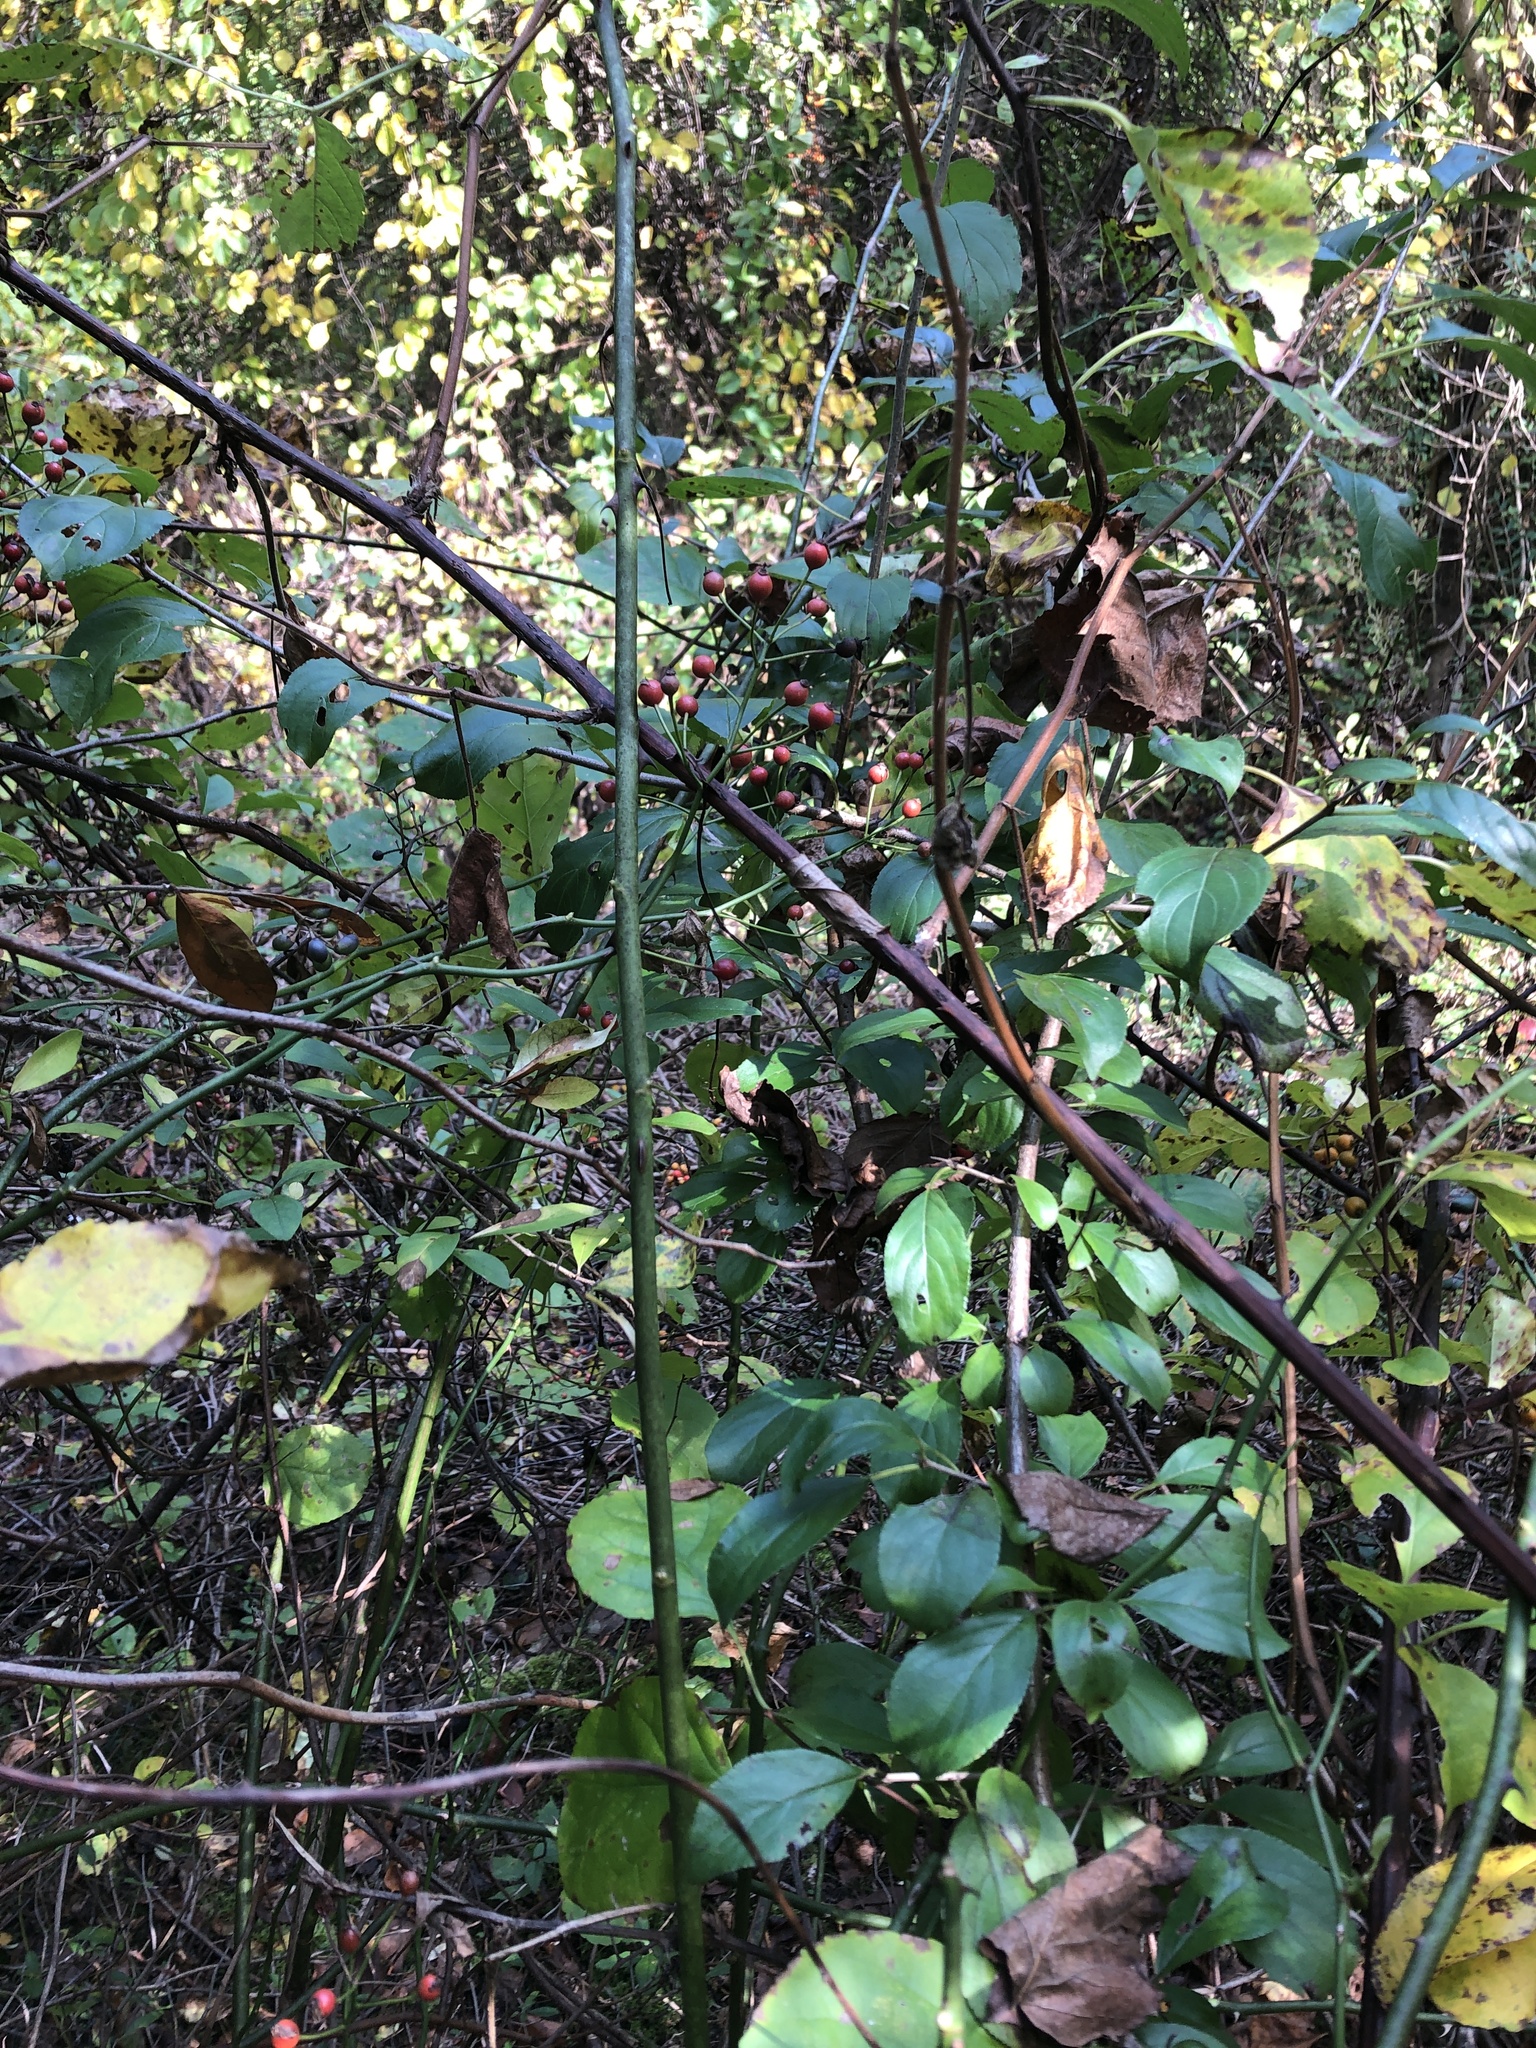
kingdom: Plantae
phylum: Tracheophyta
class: Magnoliopsida
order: Rosales
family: Rosaceae
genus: Rosa
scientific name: Rosa multiflora
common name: Multiflora rose
